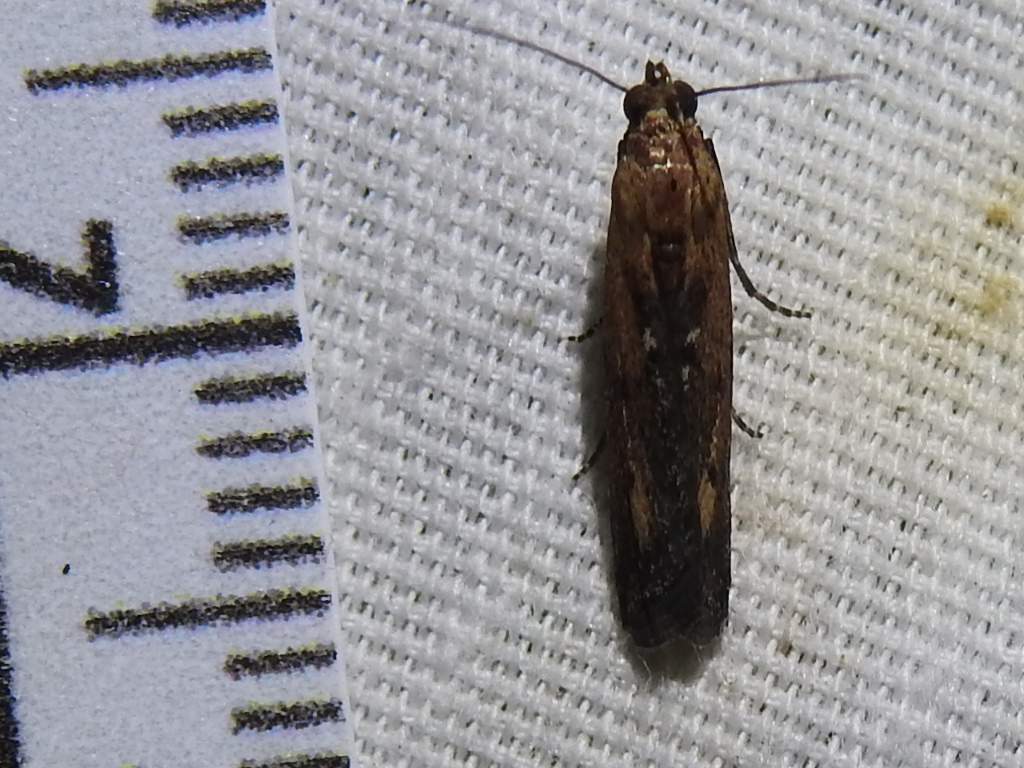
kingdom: Animalia
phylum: Arthropoda
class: Insecta
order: Lepidoptera
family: Pyralidae
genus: Elasmopalpus
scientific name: Elasmopalpus lignosella
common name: Lesser cornstalk borer
